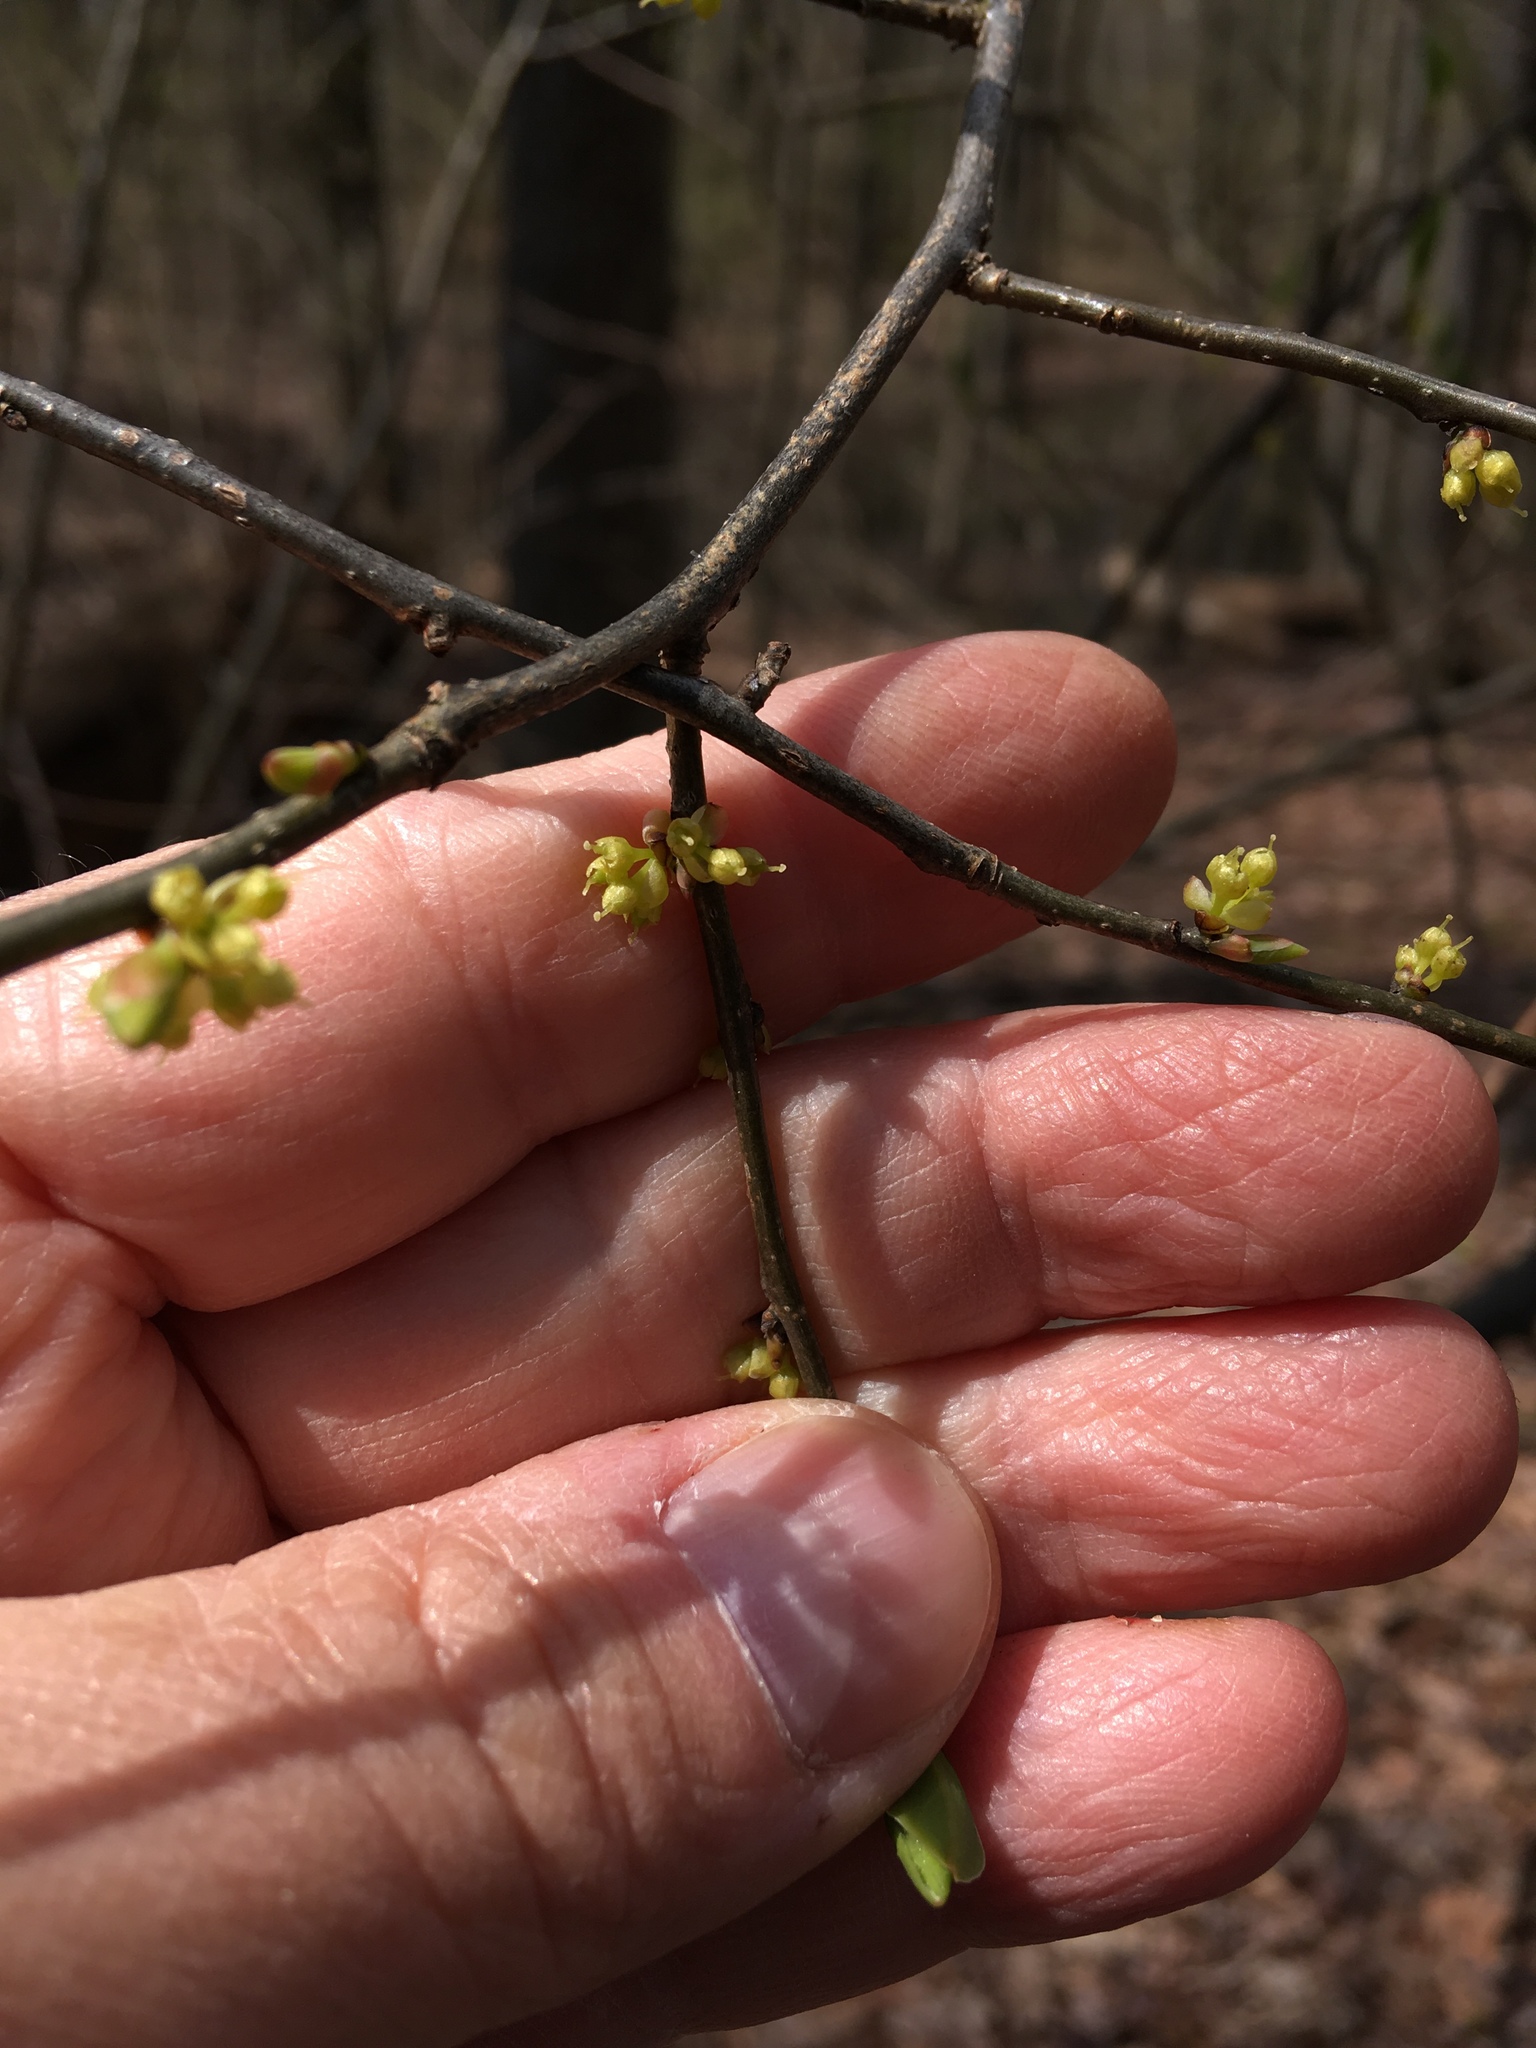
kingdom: Plantae
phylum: Tracheophyta
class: Magnoliopsida
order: Laurales
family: Lauraceae
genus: Lindera
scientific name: Lindera benzoin
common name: Spicebush
